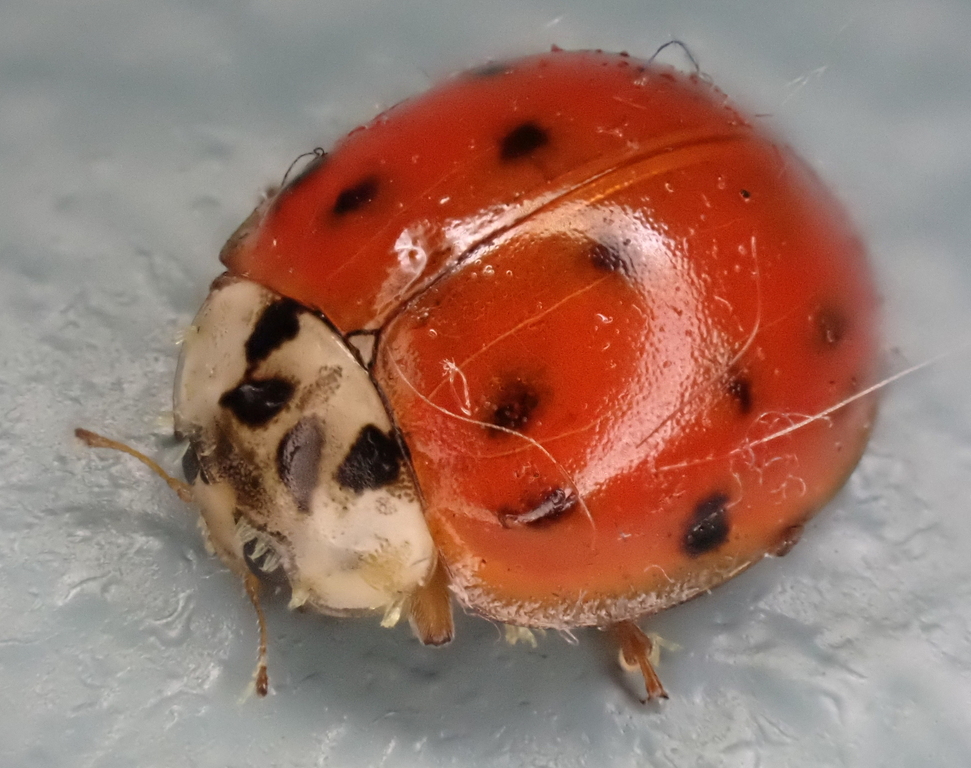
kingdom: Animalia
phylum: Arthropoda
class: Insecta
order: Coleoptera
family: Coccinellidae
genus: Harmonia
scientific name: Harmonia axyridis
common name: Harlequin ladybird
